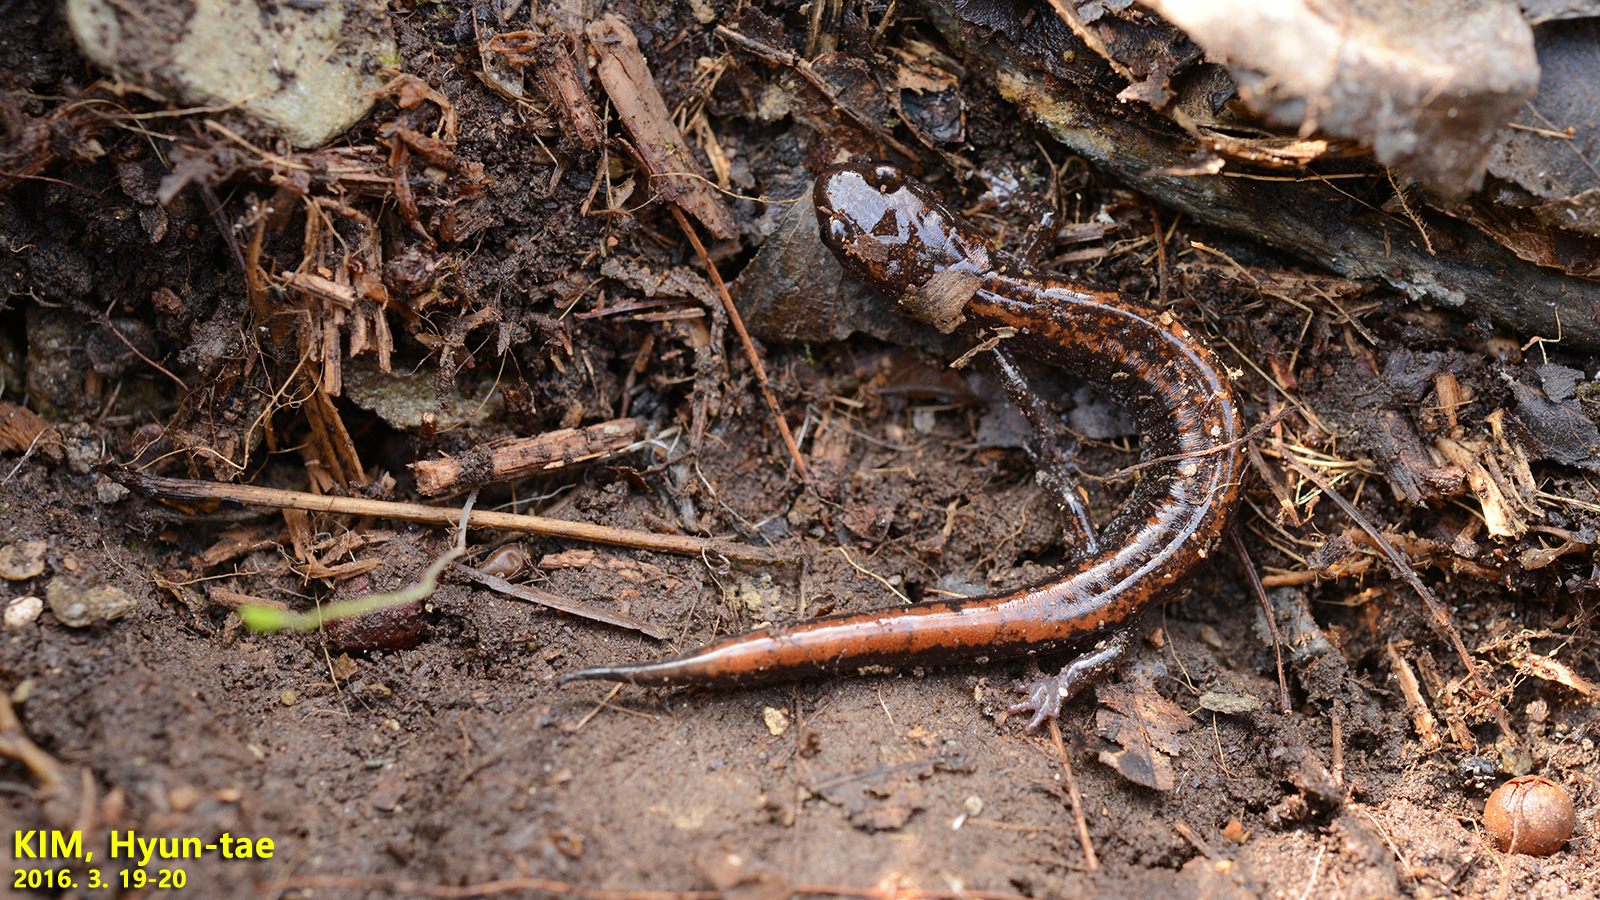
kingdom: Animalia
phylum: Chordata
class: Amphibia
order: Caudata
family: Plethodontidae
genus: Karsenia
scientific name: Karsenia koreana
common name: Korean crevice salamander
